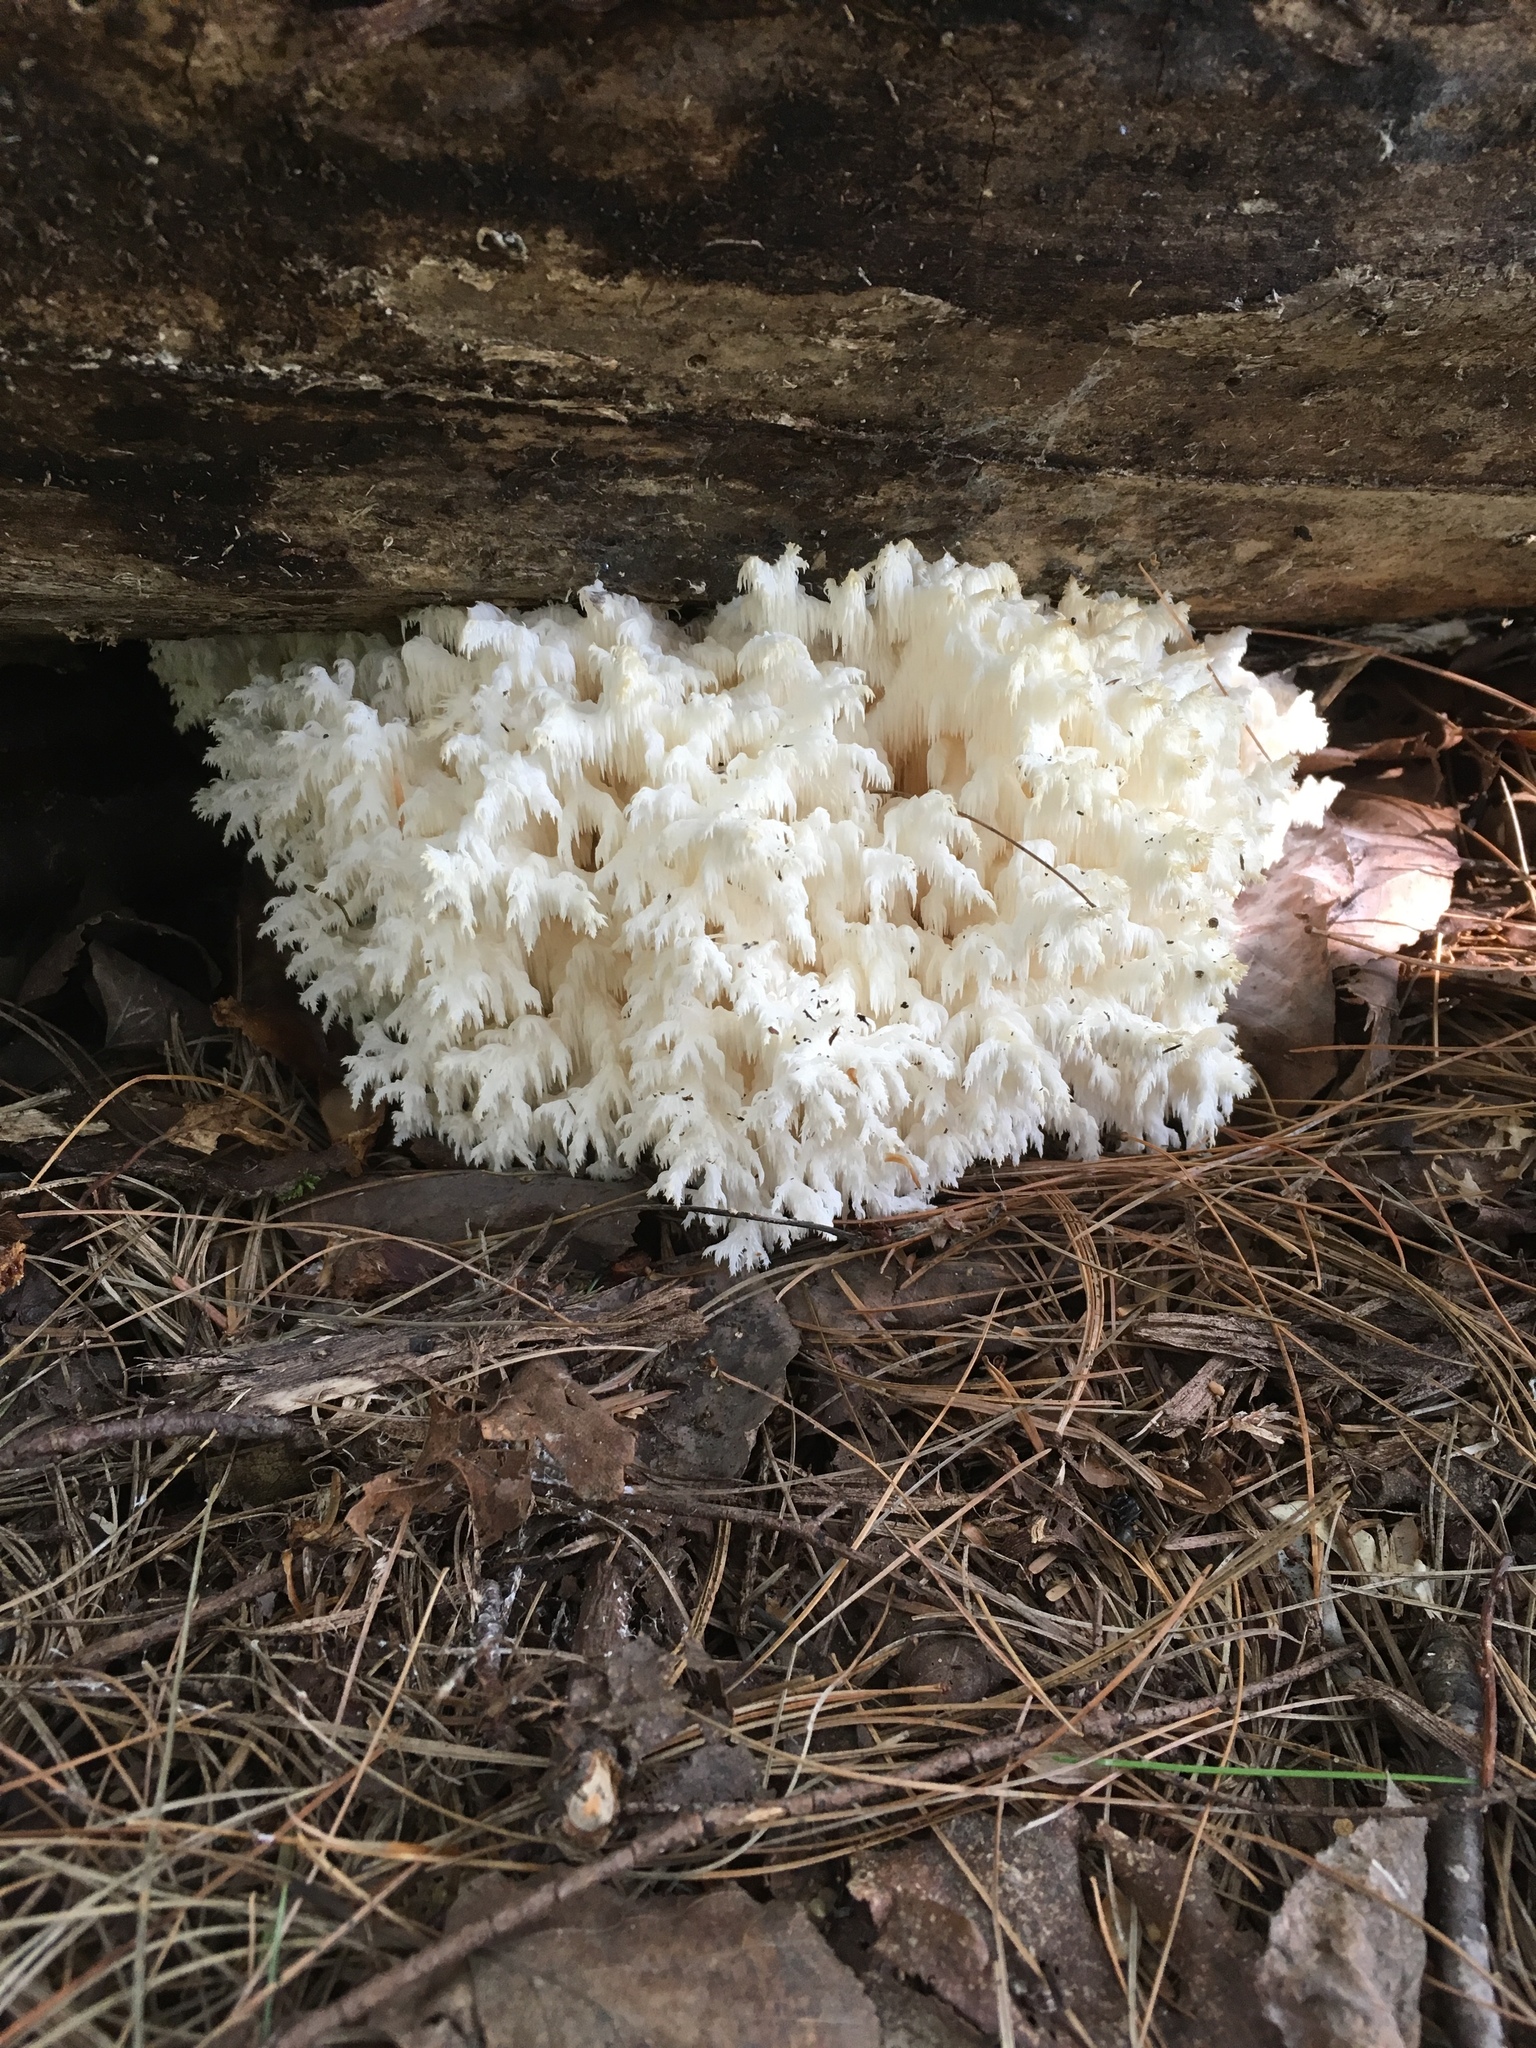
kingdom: Fungi
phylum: Basidiomycota
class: Agaricomycetes
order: Russulales
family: Hericiaceae
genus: Hericium
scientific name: Hericium coralloides
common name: Coral tooth
